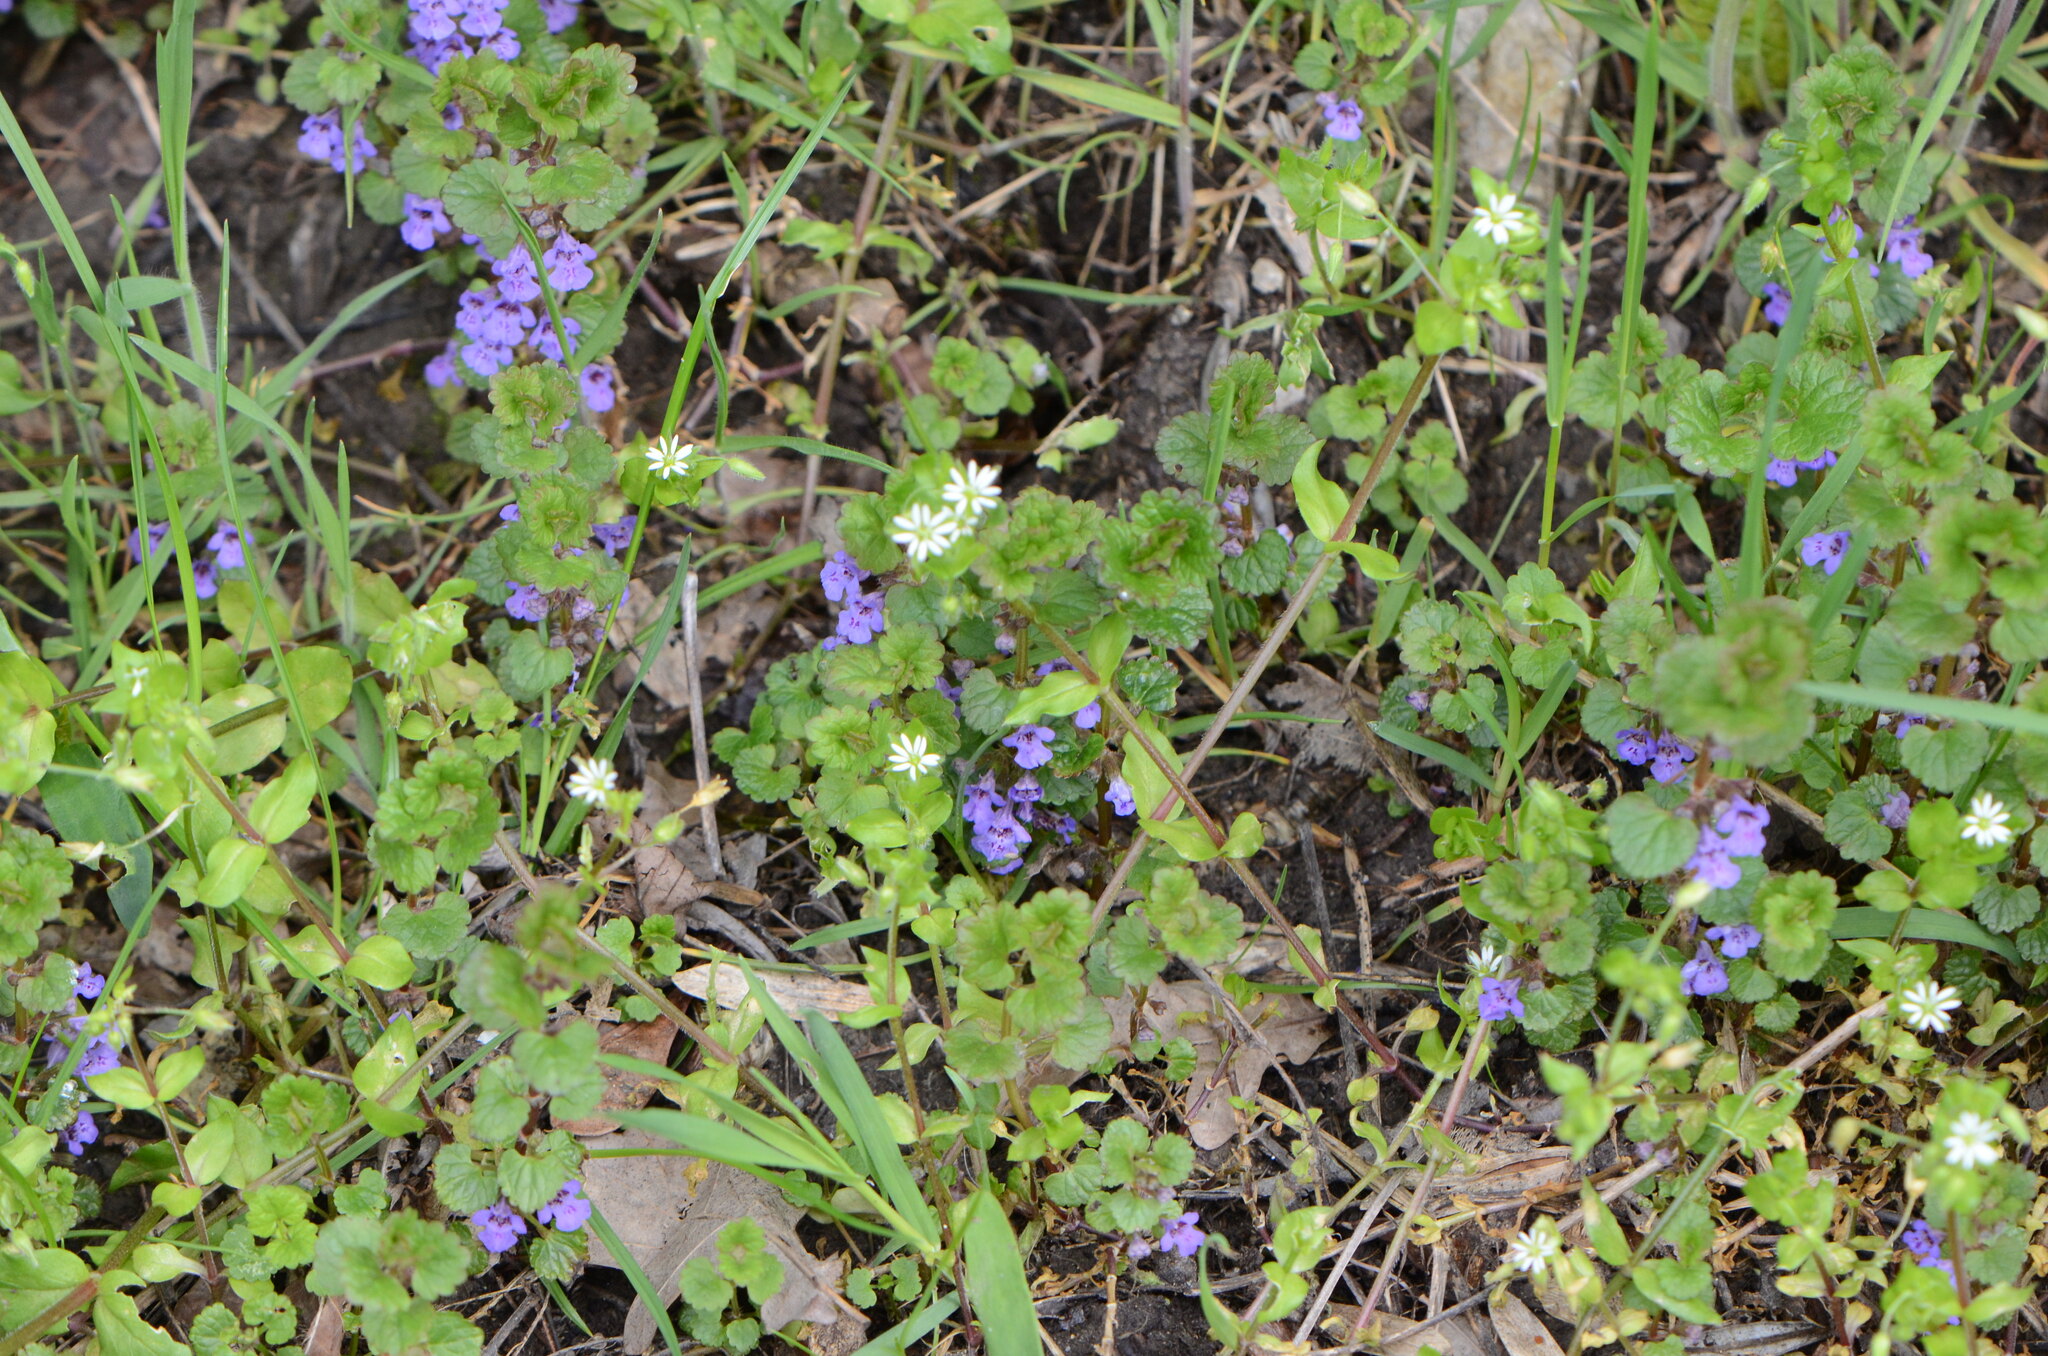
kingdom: Plantae
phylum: Tracheophyta
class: Magnoliopsida
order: Lamiales
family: Lamiaceae
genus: Glechoma
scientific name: Glechoma hederacea
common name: Ground ivy
